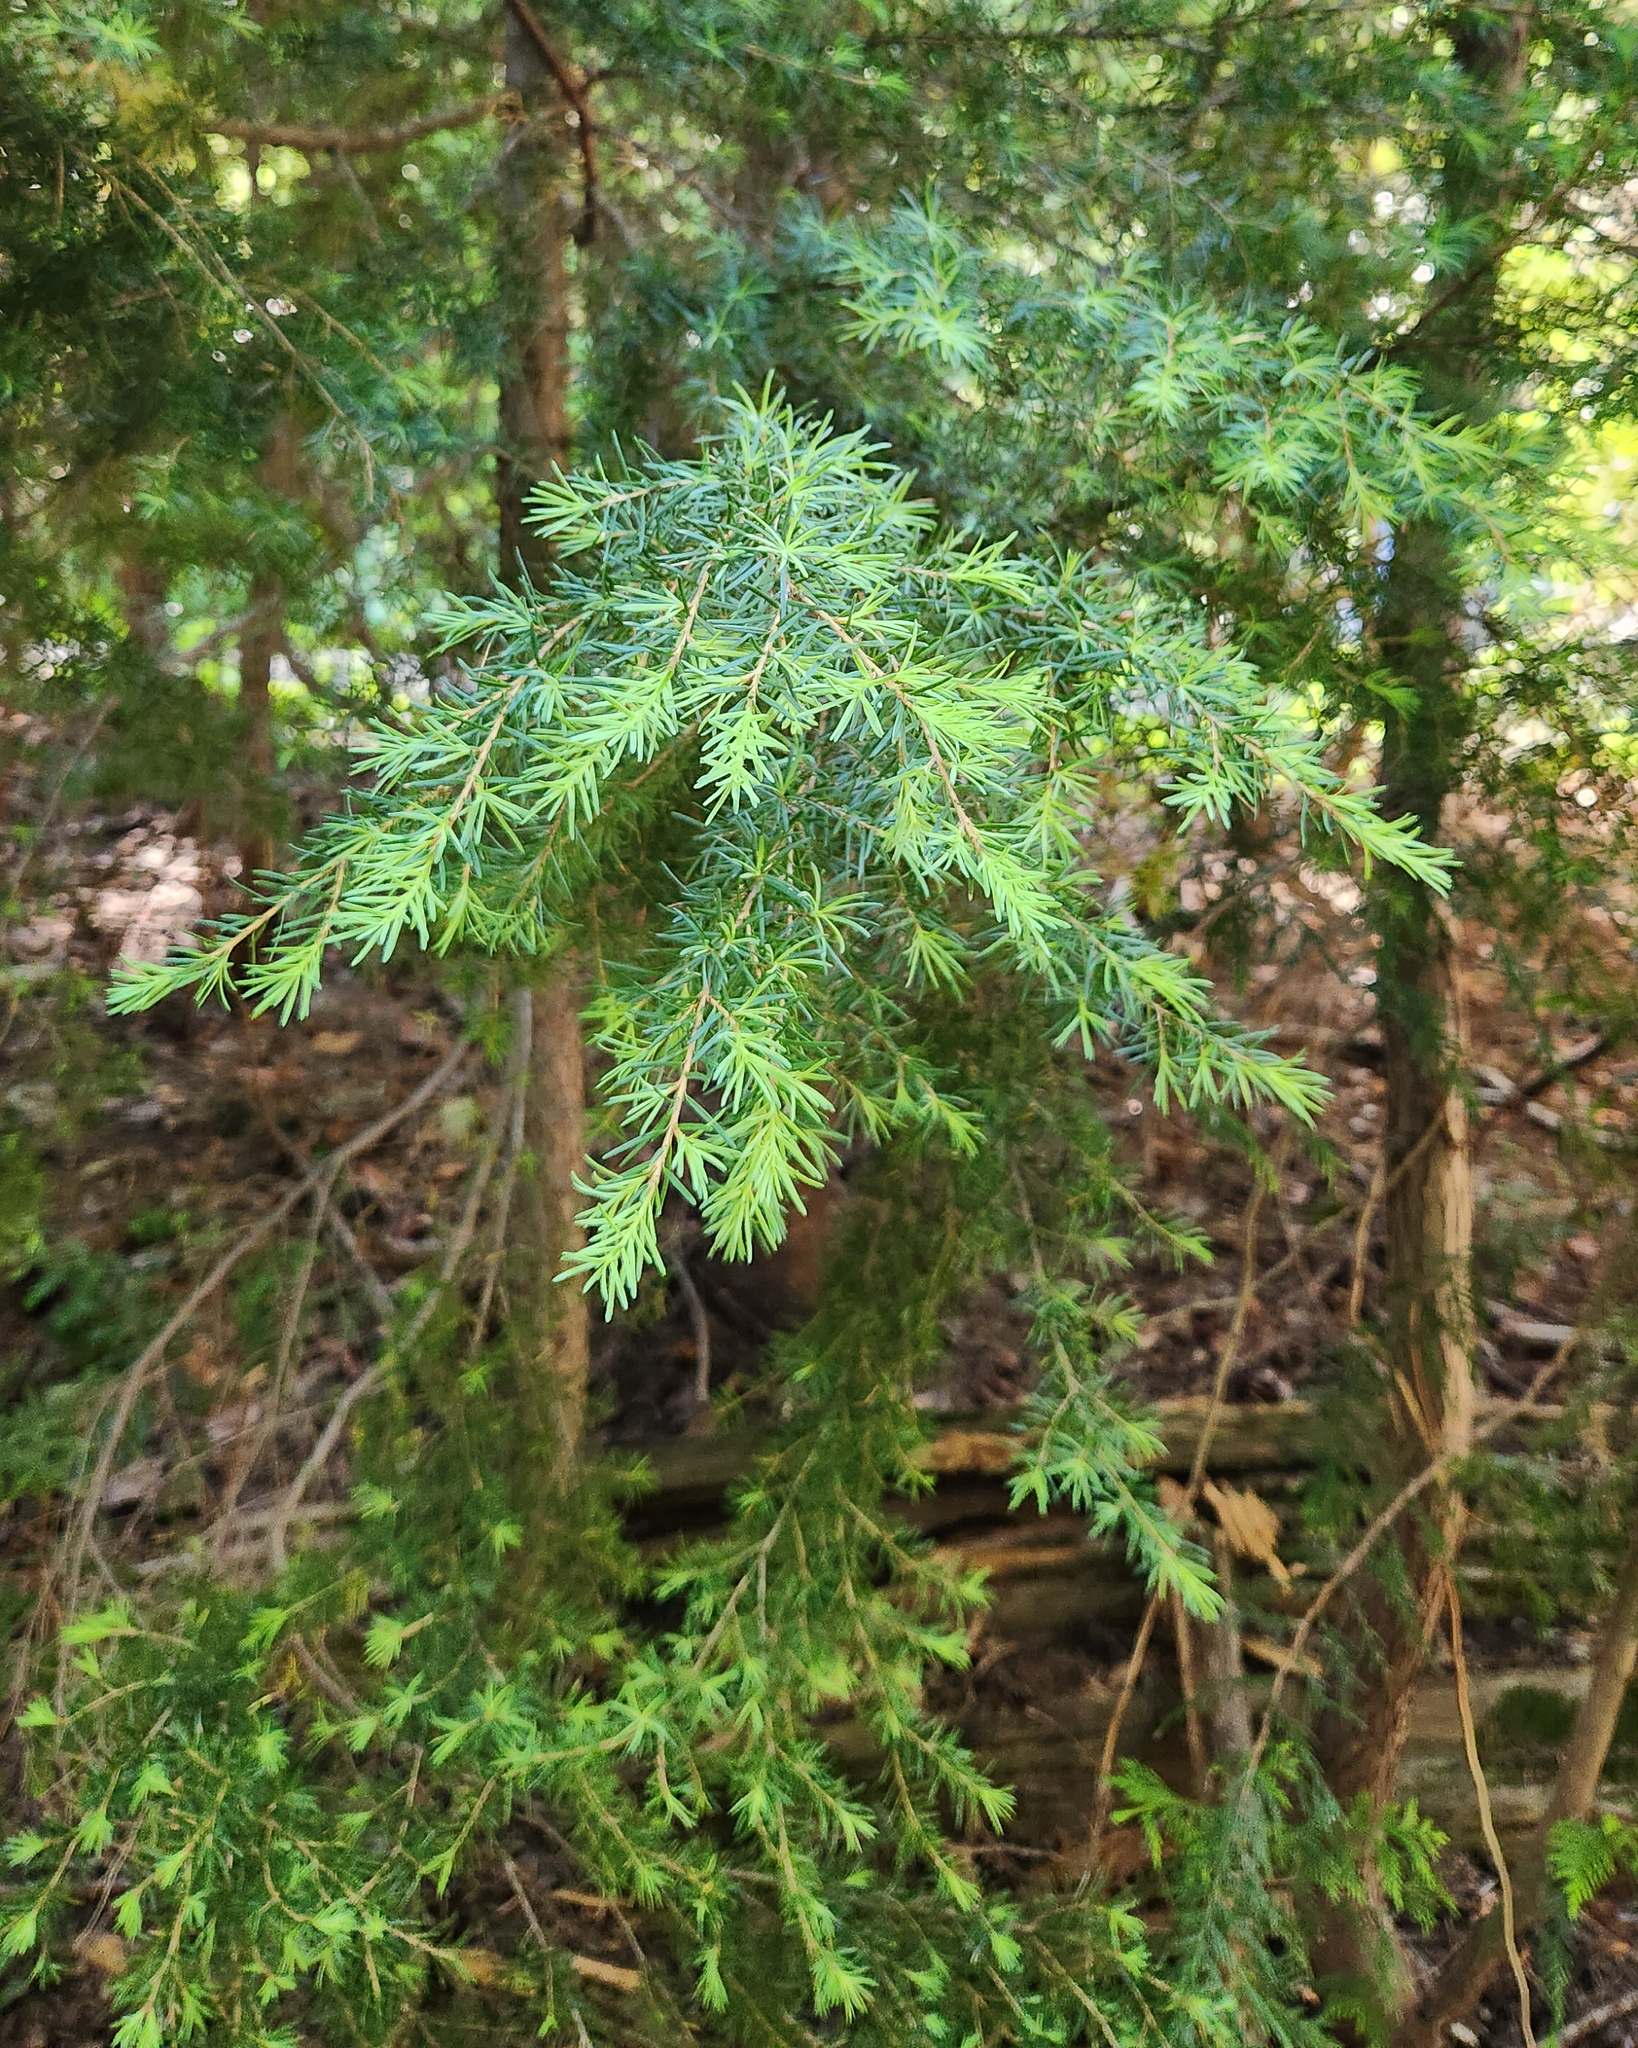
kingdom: Plantae
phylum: Tracheophyta
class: Pinopsida
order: Pinales
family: Pinaceae
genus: Tsuga
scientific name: Tsuga mertensiana
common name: Mountain hemlock
